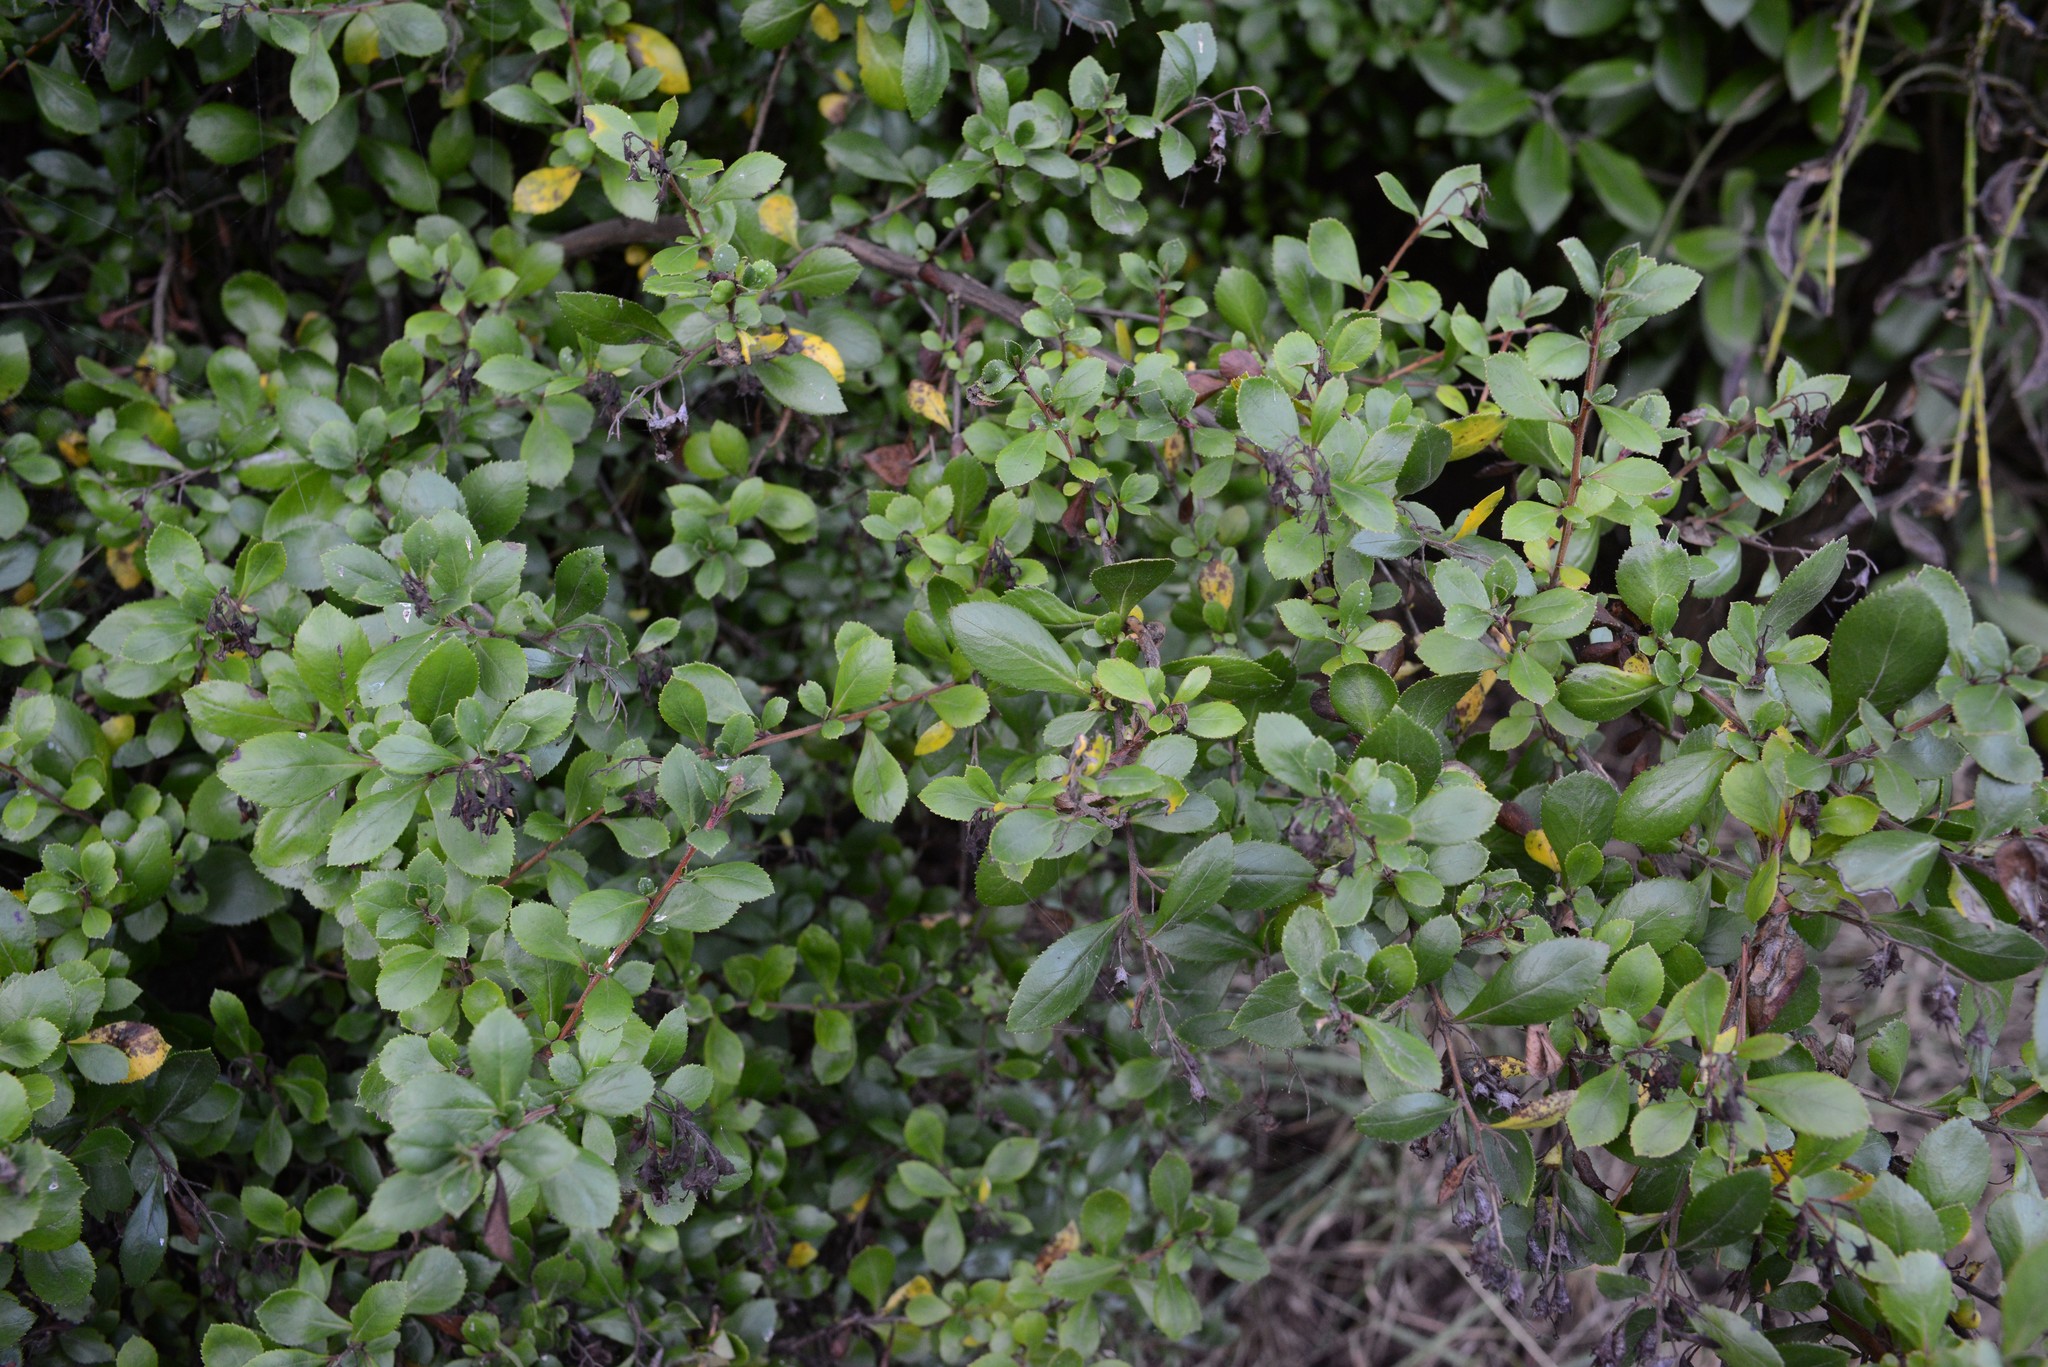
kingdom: Plantae
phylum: Tracheophyta
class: Magnoliopsida
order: Escalloniales
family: Escalloniaceae
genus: Escallonia
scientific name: Escallonia rubra
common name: Redclaws
